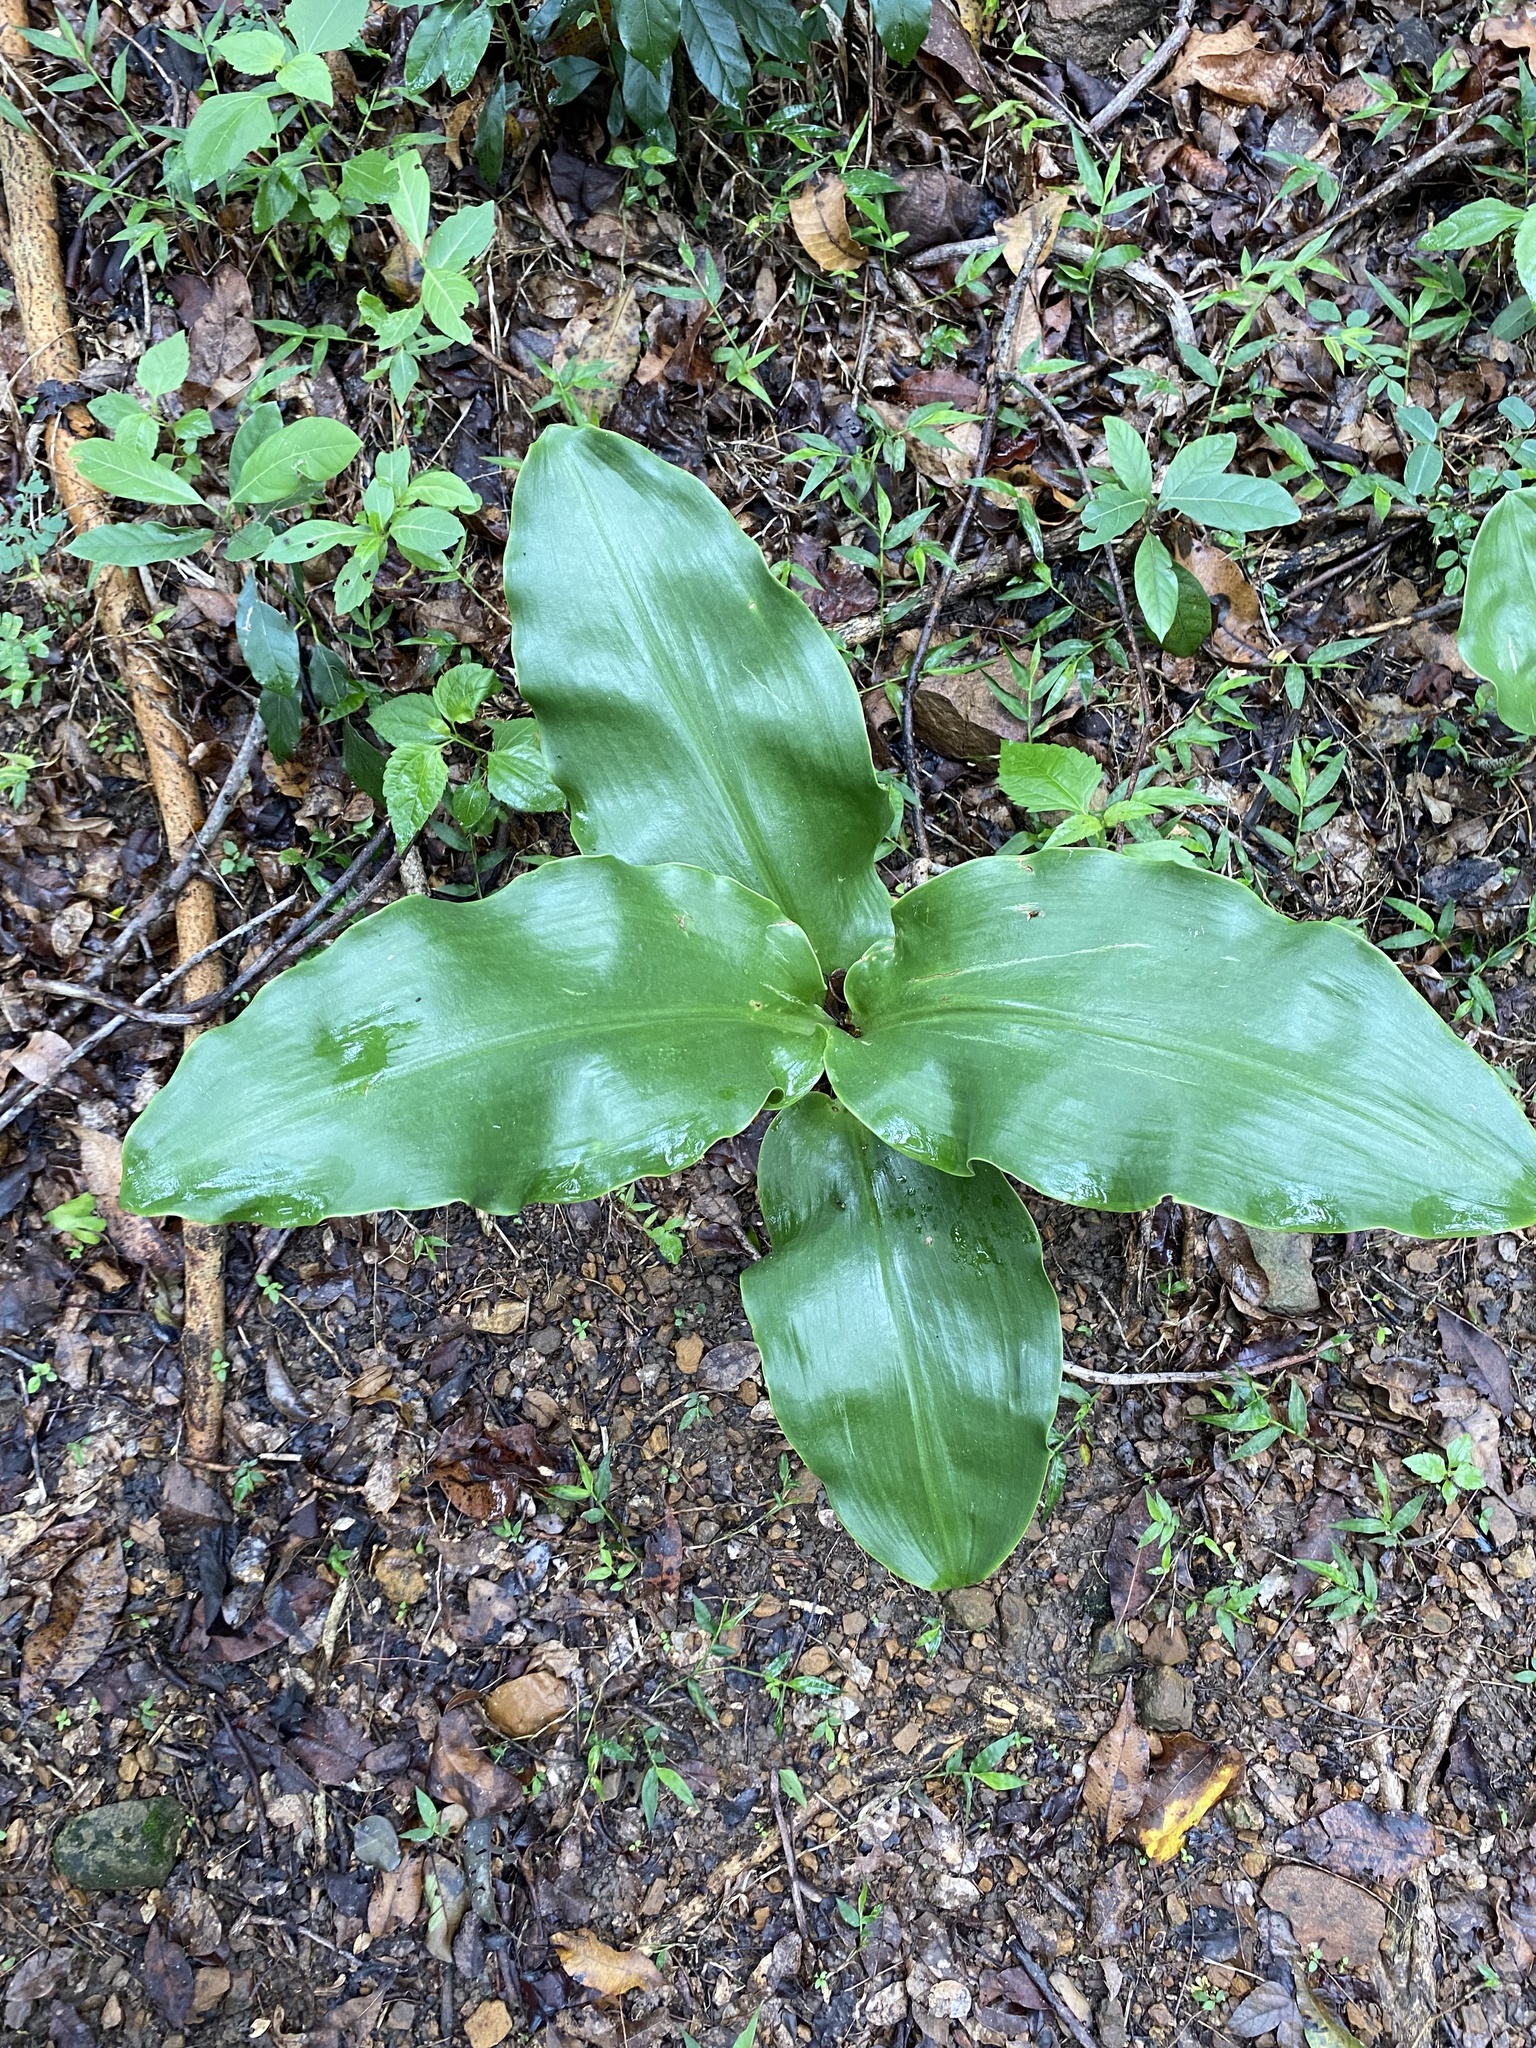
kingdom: Plantae
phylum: Tracheophyta
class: Liliopsida
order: Asparagales
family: Amaryllidaceae
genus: Scadoxus
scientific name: Scadoxus puniceus
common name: Royal-paintbrush
